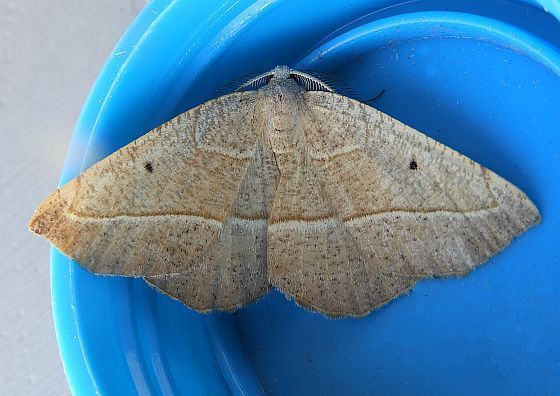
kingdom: Animalia
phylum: Arthropoda
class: Insecta
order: Lepidoptera
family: Geometridae
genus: Eusarca
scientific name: Eusarca tibiaria
